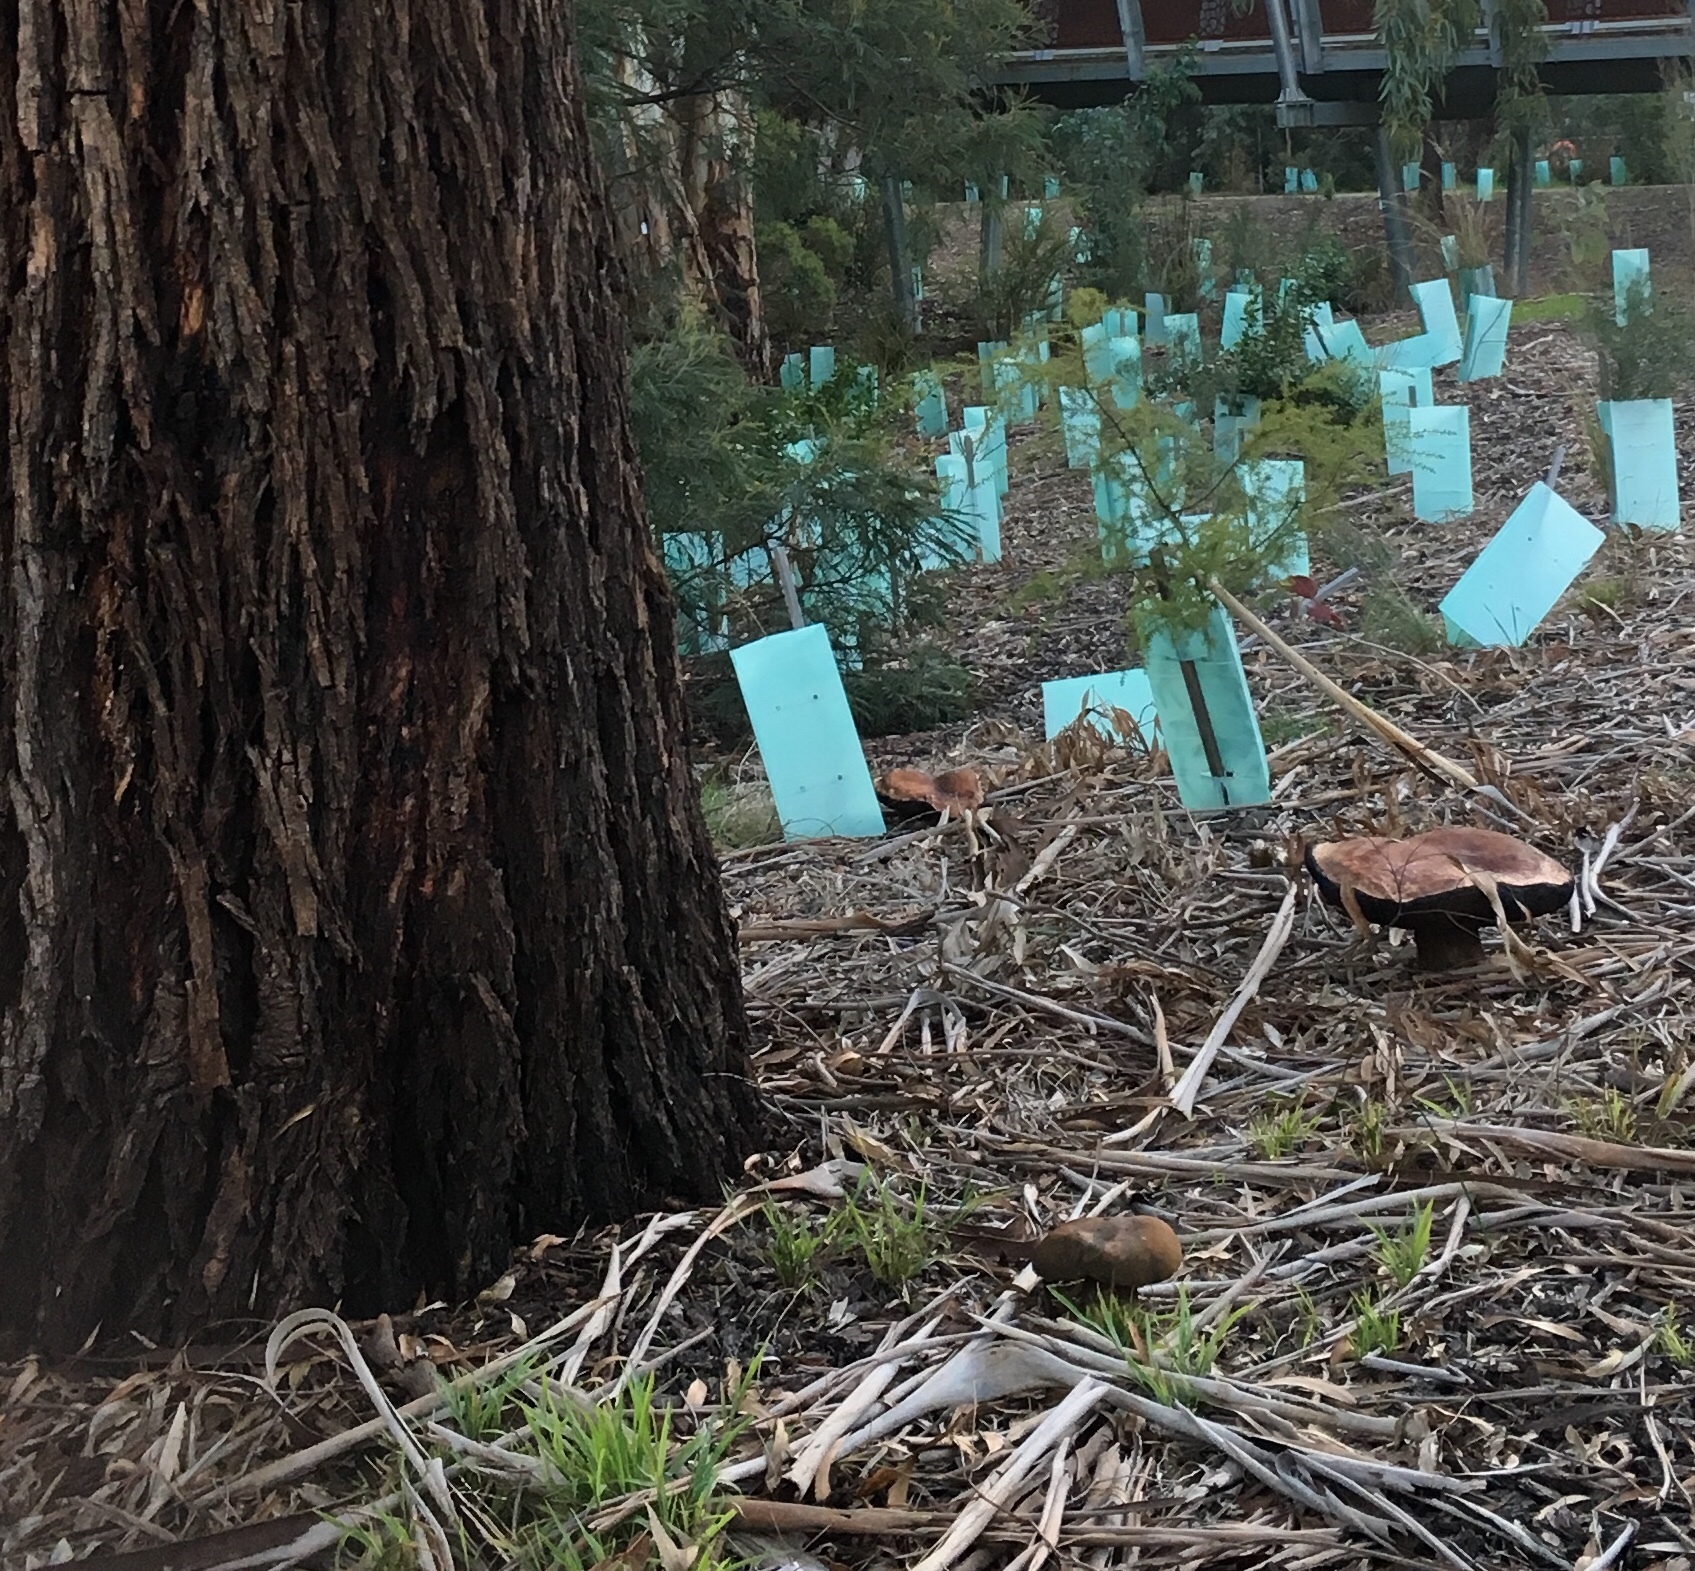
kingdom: Fungi
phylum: Basidiomycota
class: Agaricomycetes
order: Boletales
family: Boletinellaceae
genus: Phlebopus
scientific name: Phlebopus marginatus
